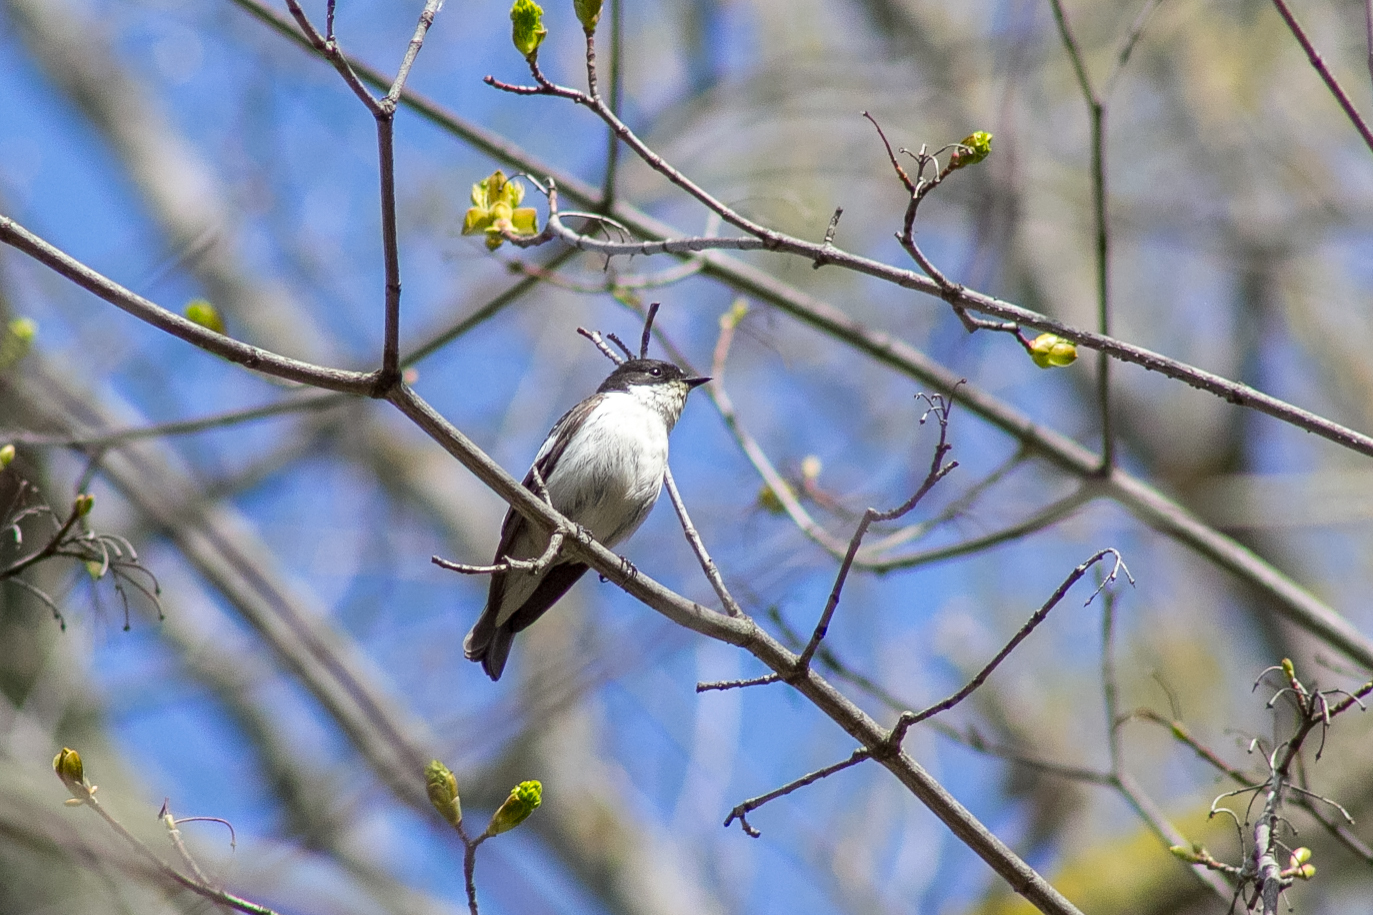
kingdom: Animalia
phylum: Chordata
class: Aves
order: Passeriformes
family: Muscicapidae
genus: Ficedula
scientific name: Ficedula hypoleuca
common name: European pied flycatcher
